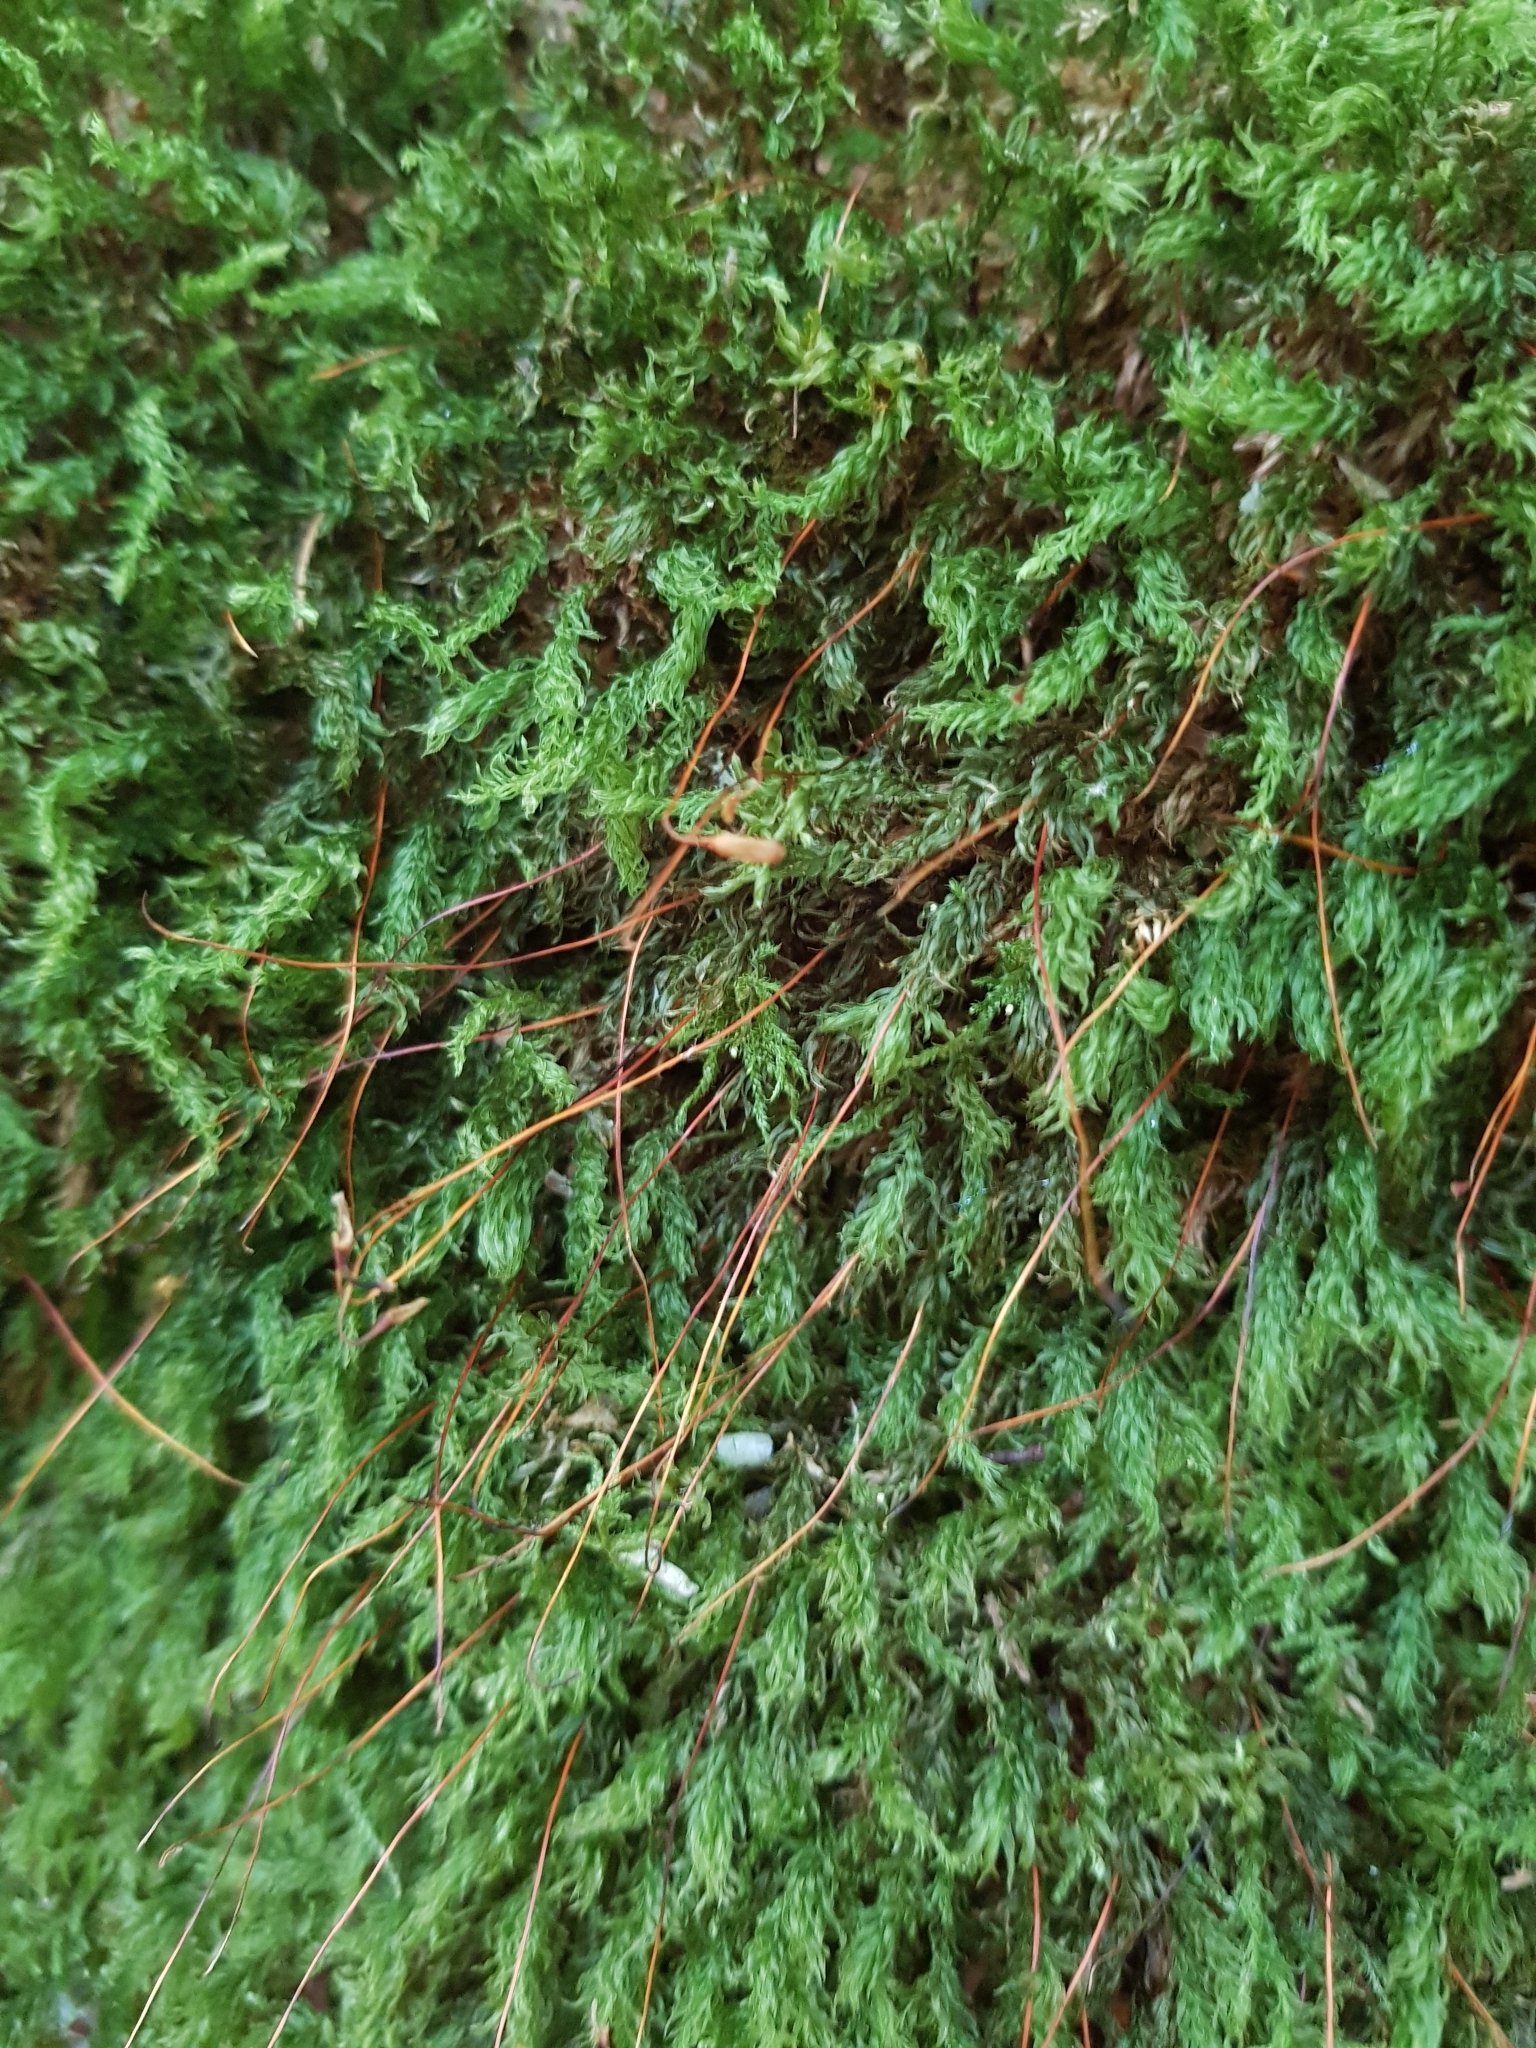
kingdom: Plantae
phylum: Bryophyta
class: Bryopsida
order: Bryales
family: Mniaceae
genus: Mnium
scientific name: Mnium hornum
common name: Swan's-neck leafy moss
